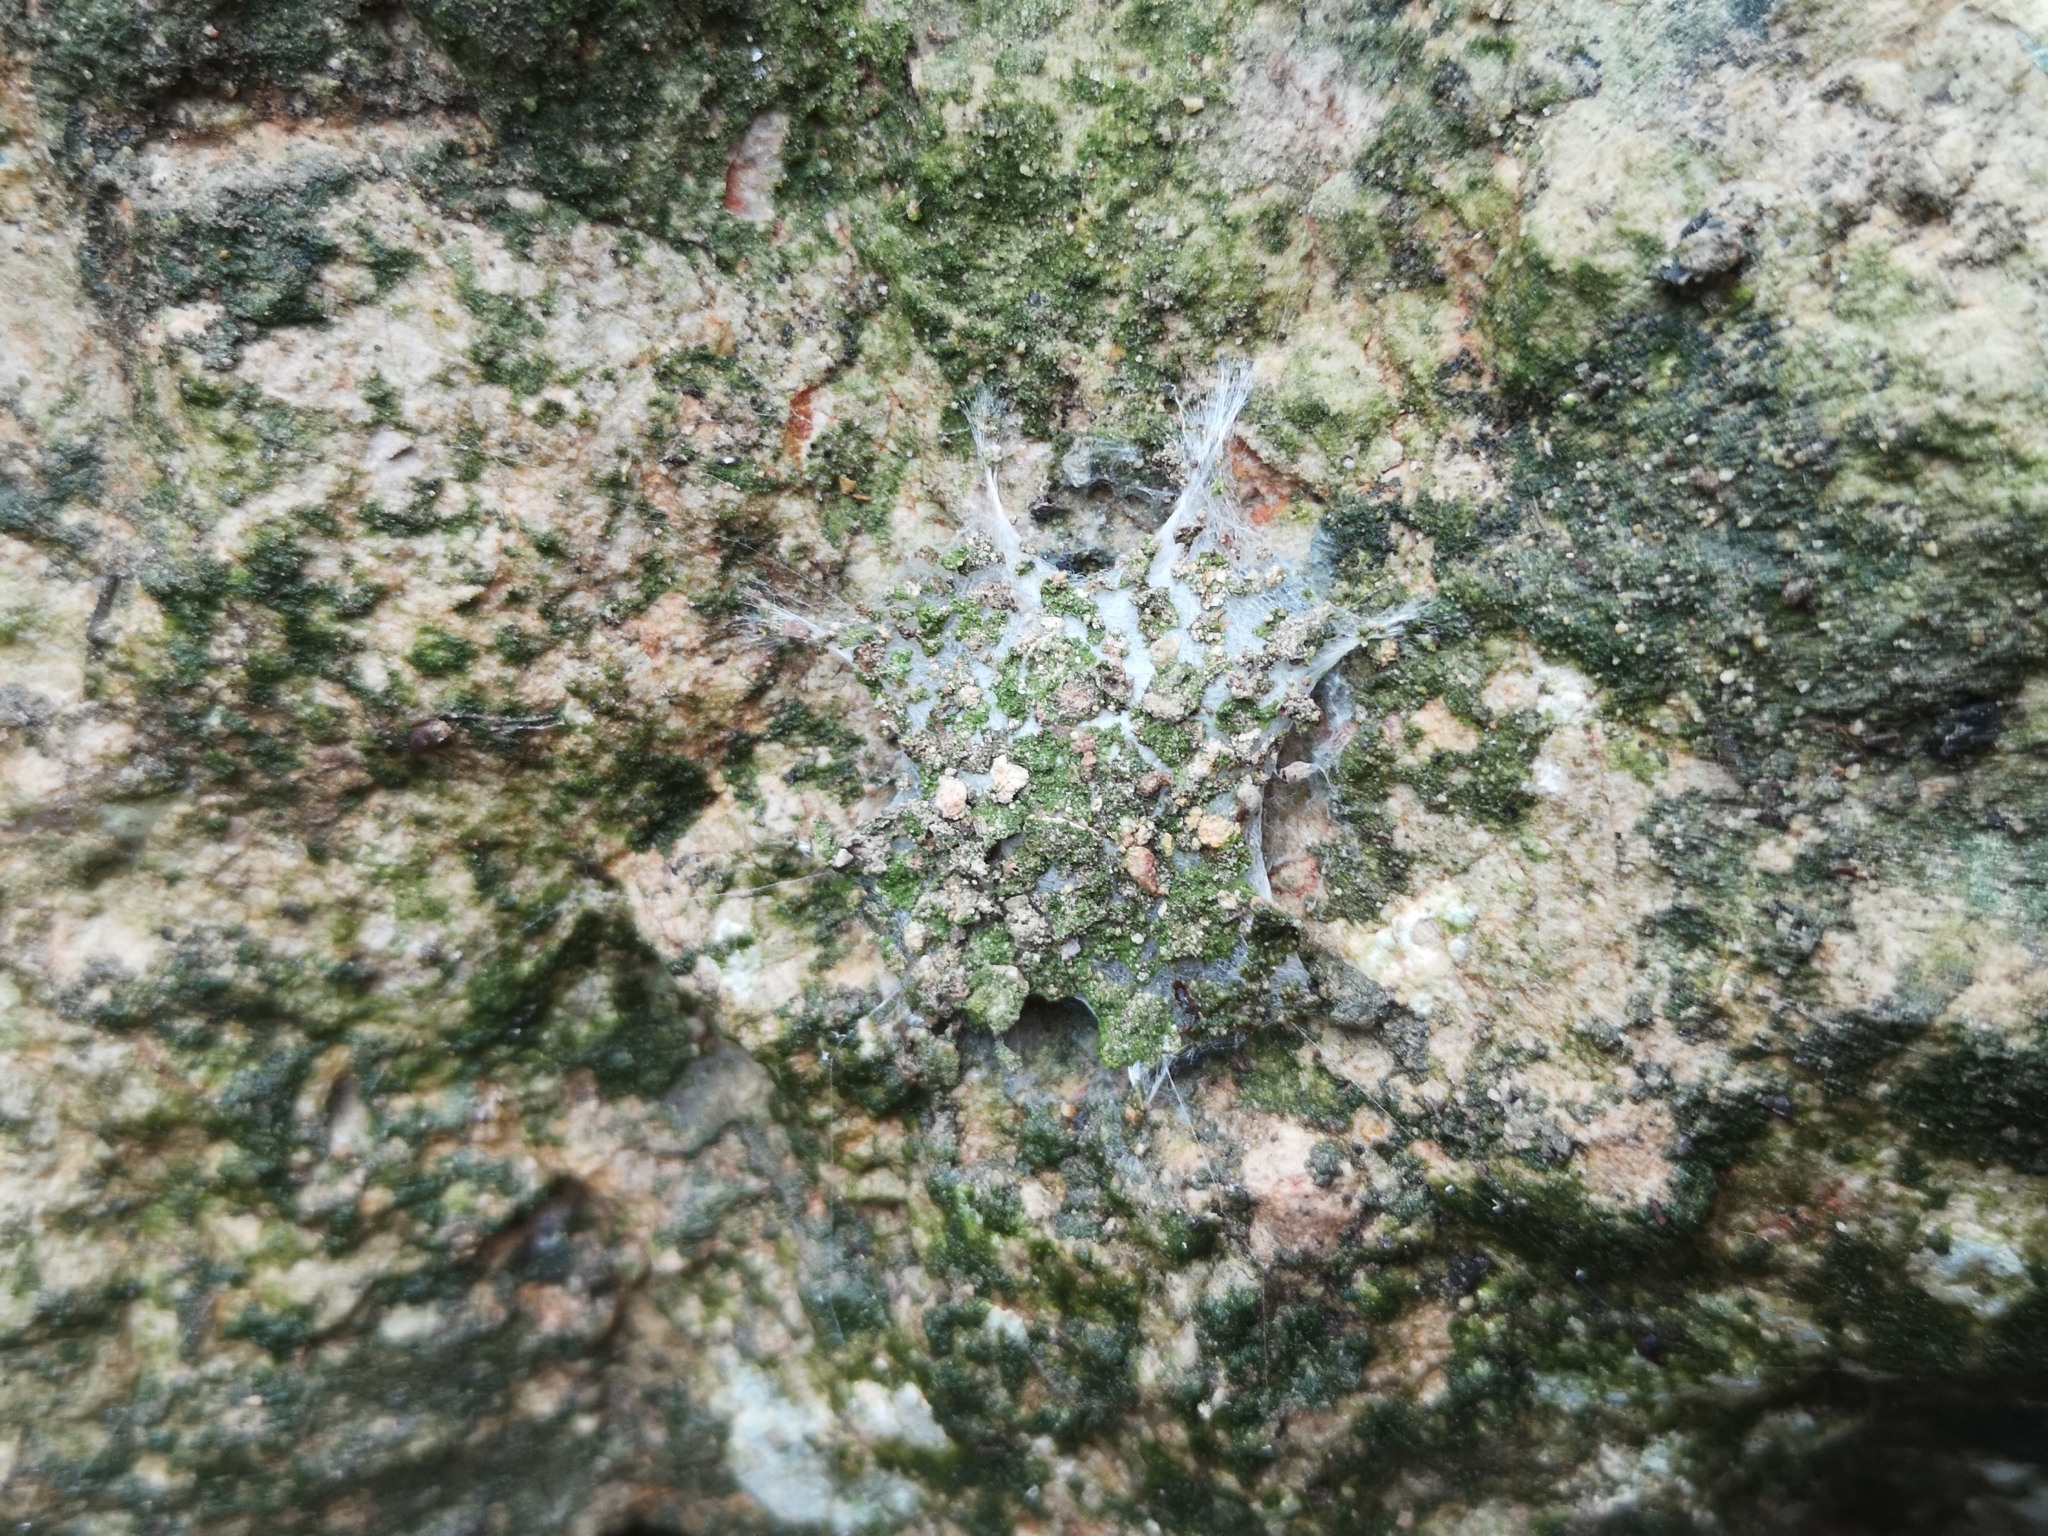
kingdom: Animalia
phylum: Arthropoda
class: Arachnida
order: Araneae
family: Oecobiidae
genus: Uroctea
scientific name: Uroctea durandi
